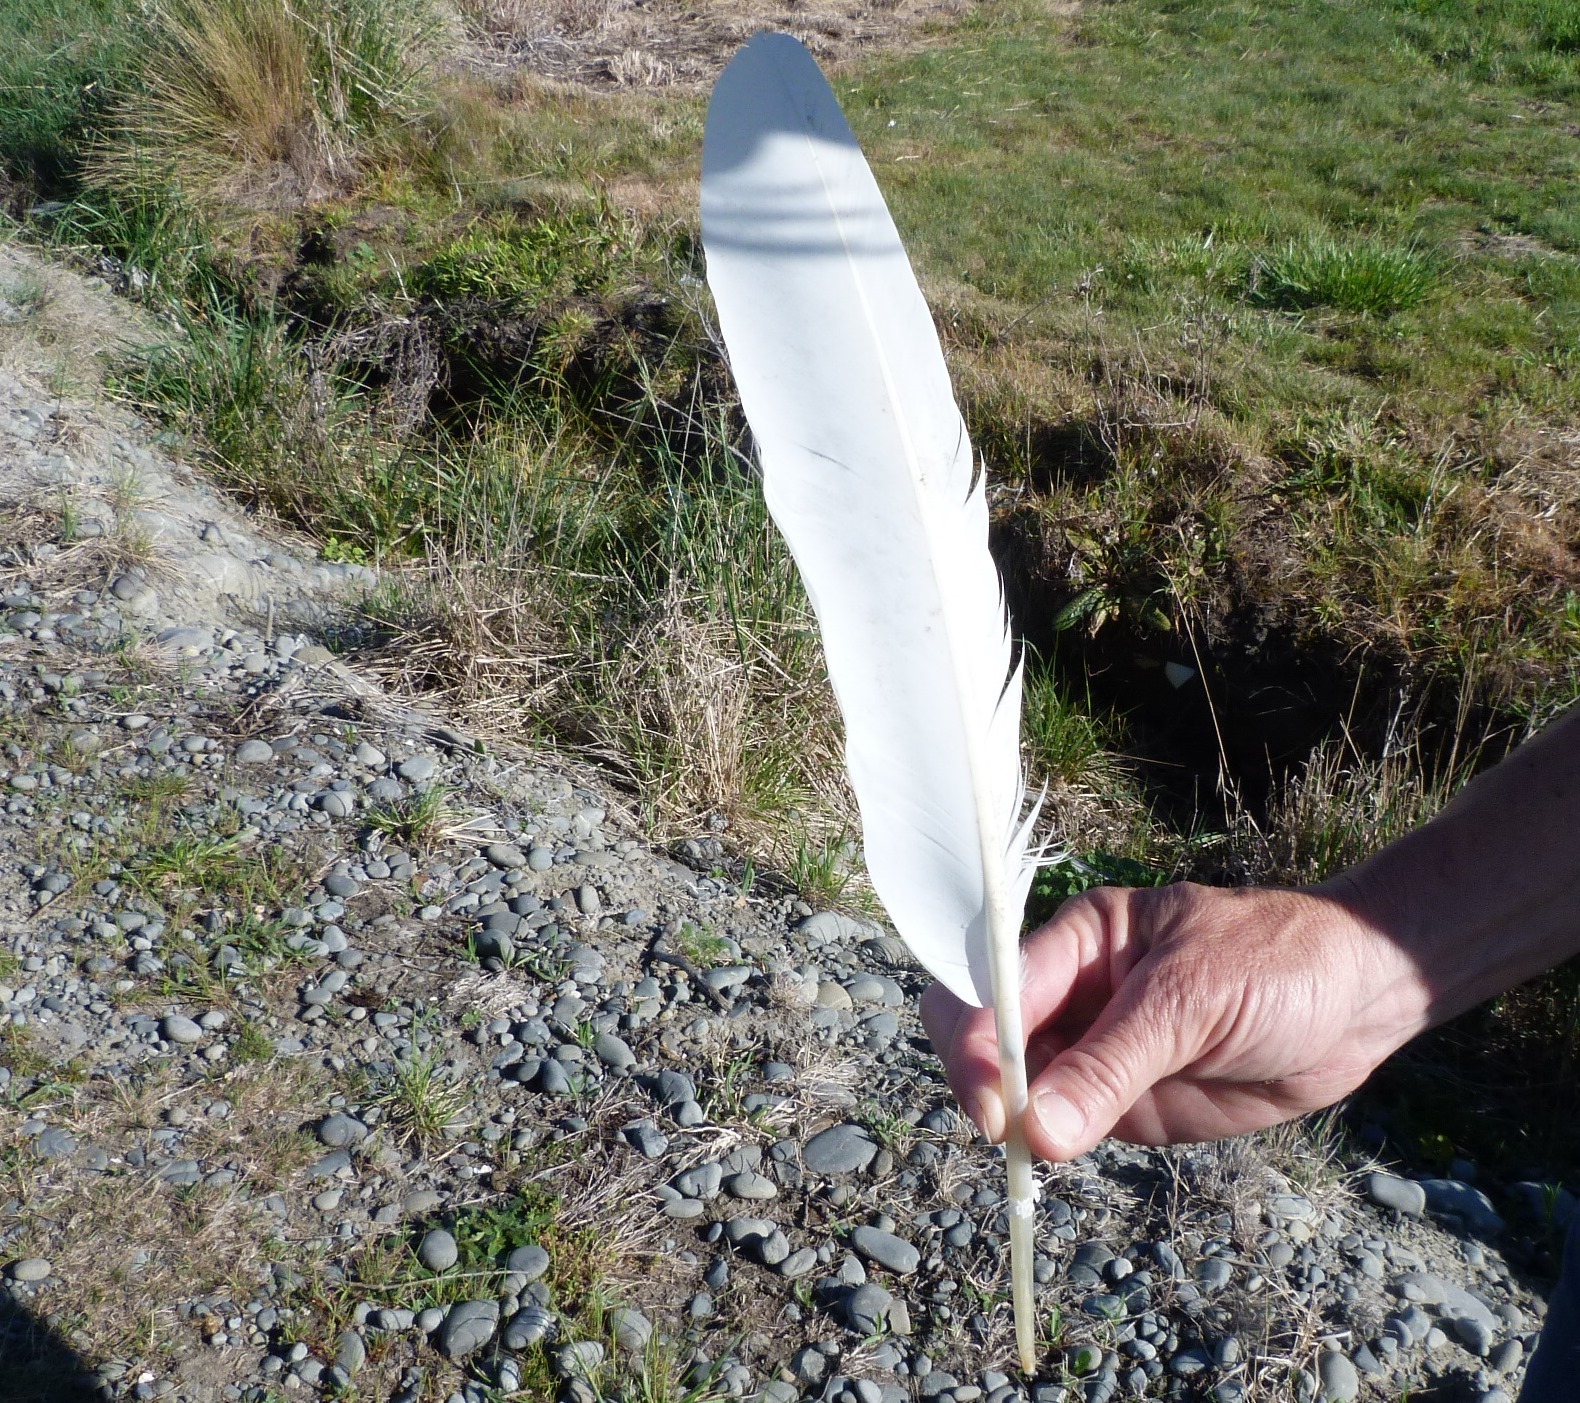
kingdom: Animalia
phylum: Chordata
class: Aves
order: Pelecaniformes
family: Threskiornithidae
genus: Platalea
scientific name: Platalea regia
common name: Royal spoonbill
